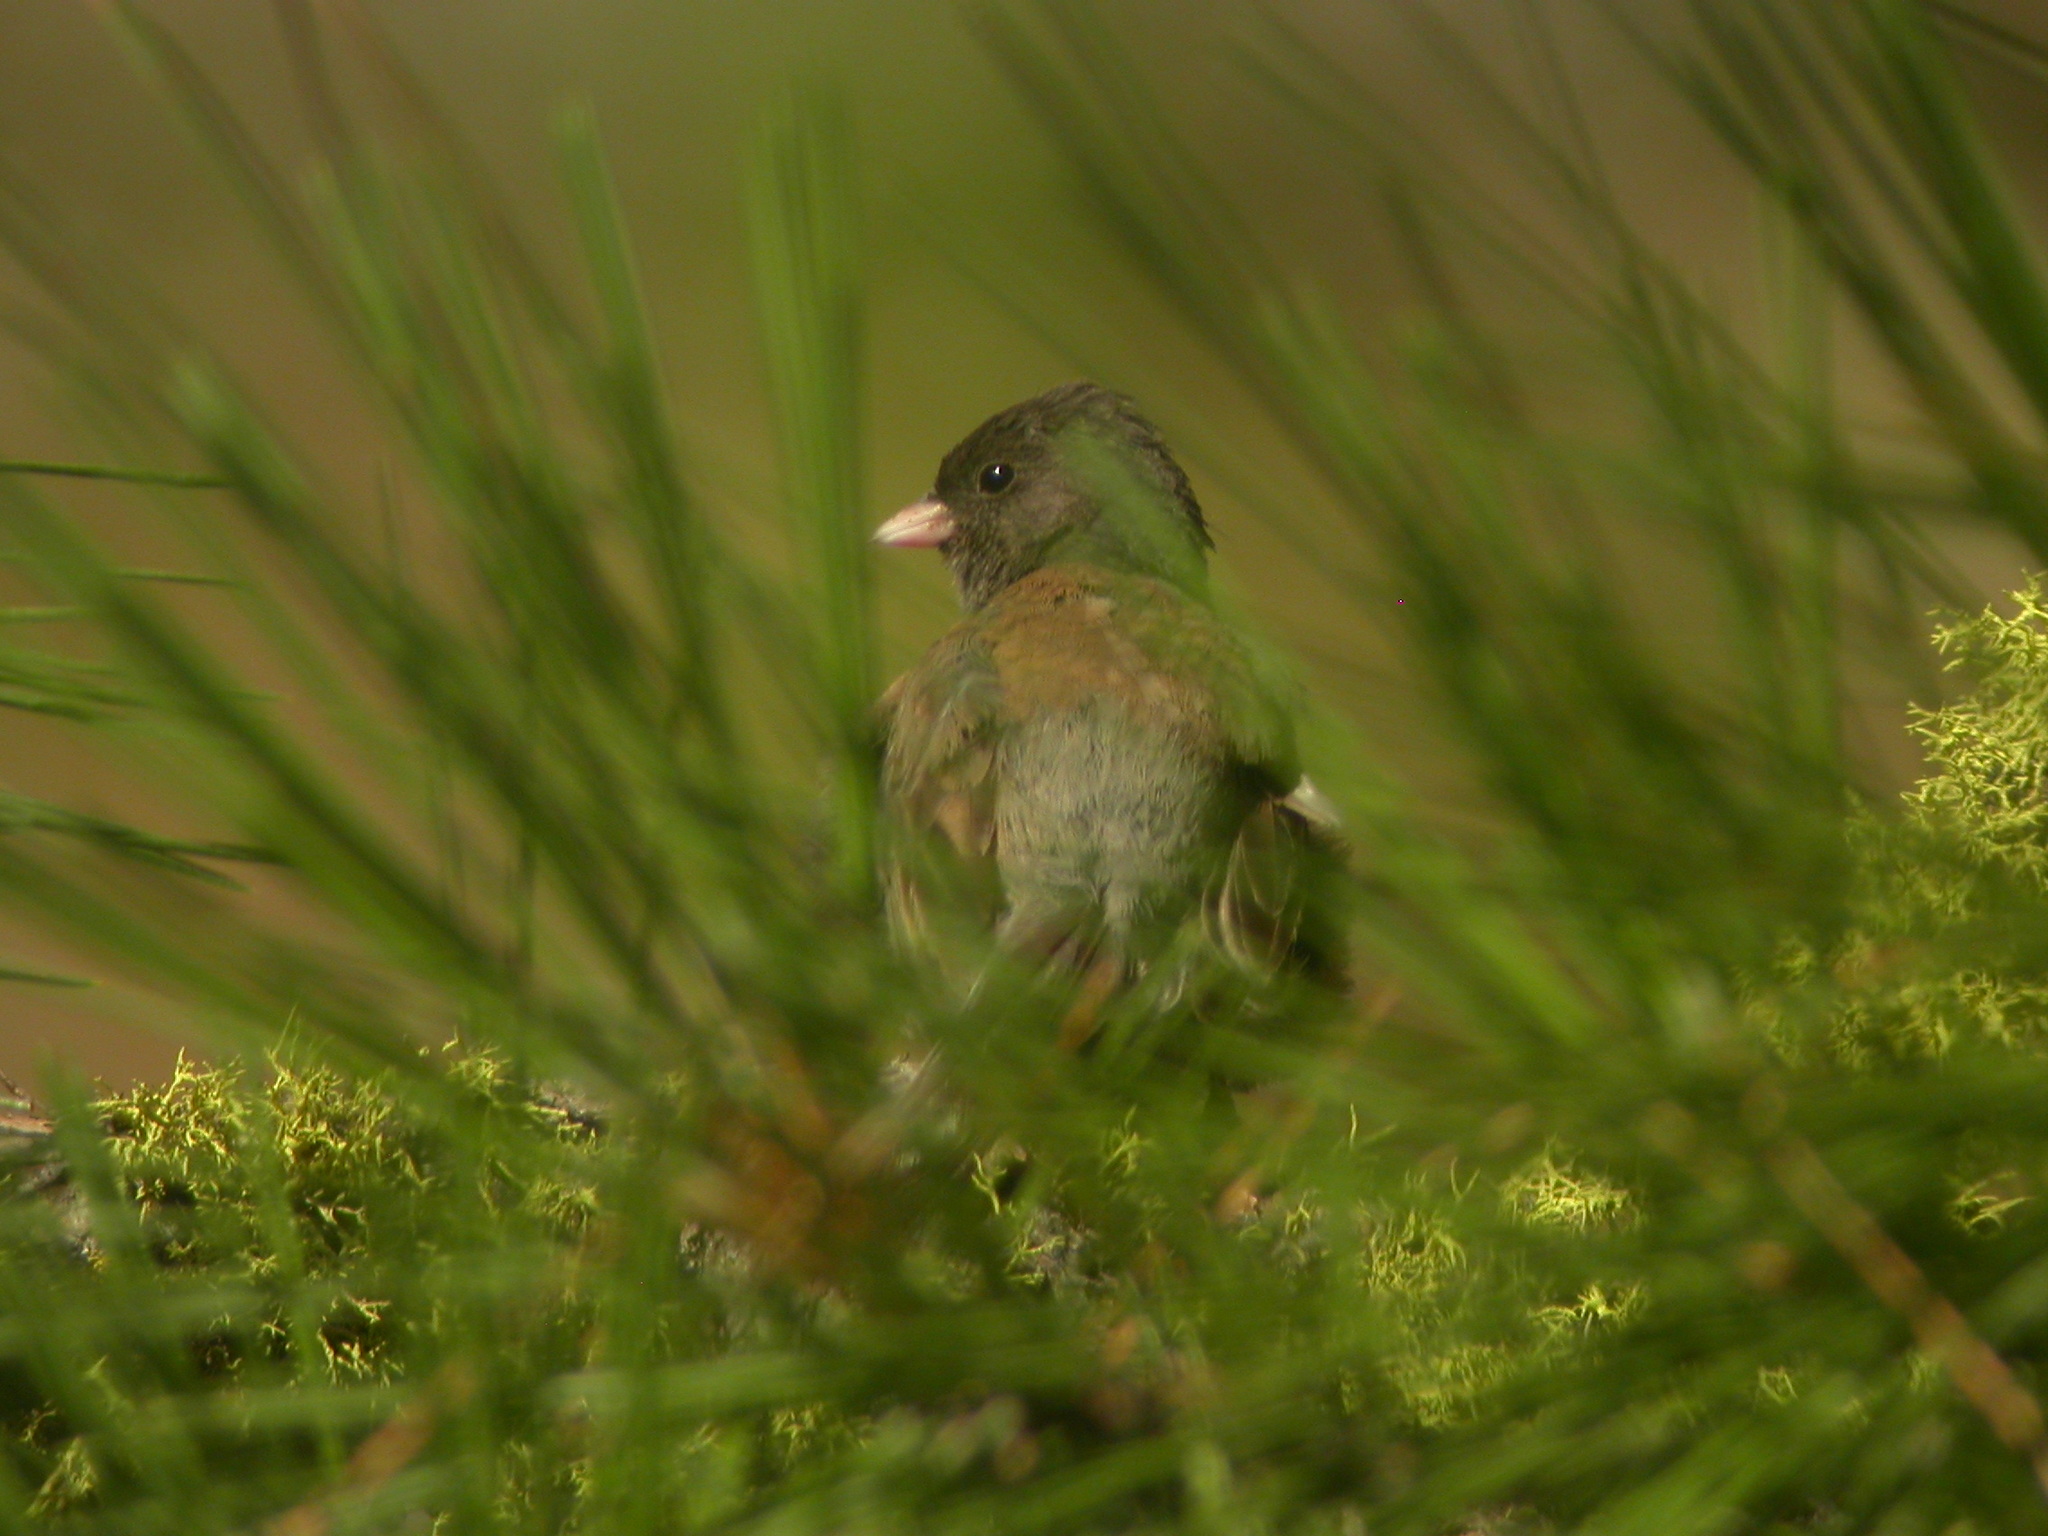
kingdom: Animalia
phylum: Chordata
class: Aves
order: Passeriformes
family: Passerellidae
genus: Junco
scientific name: Junco hyemalis
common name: Dark-eyed junco
